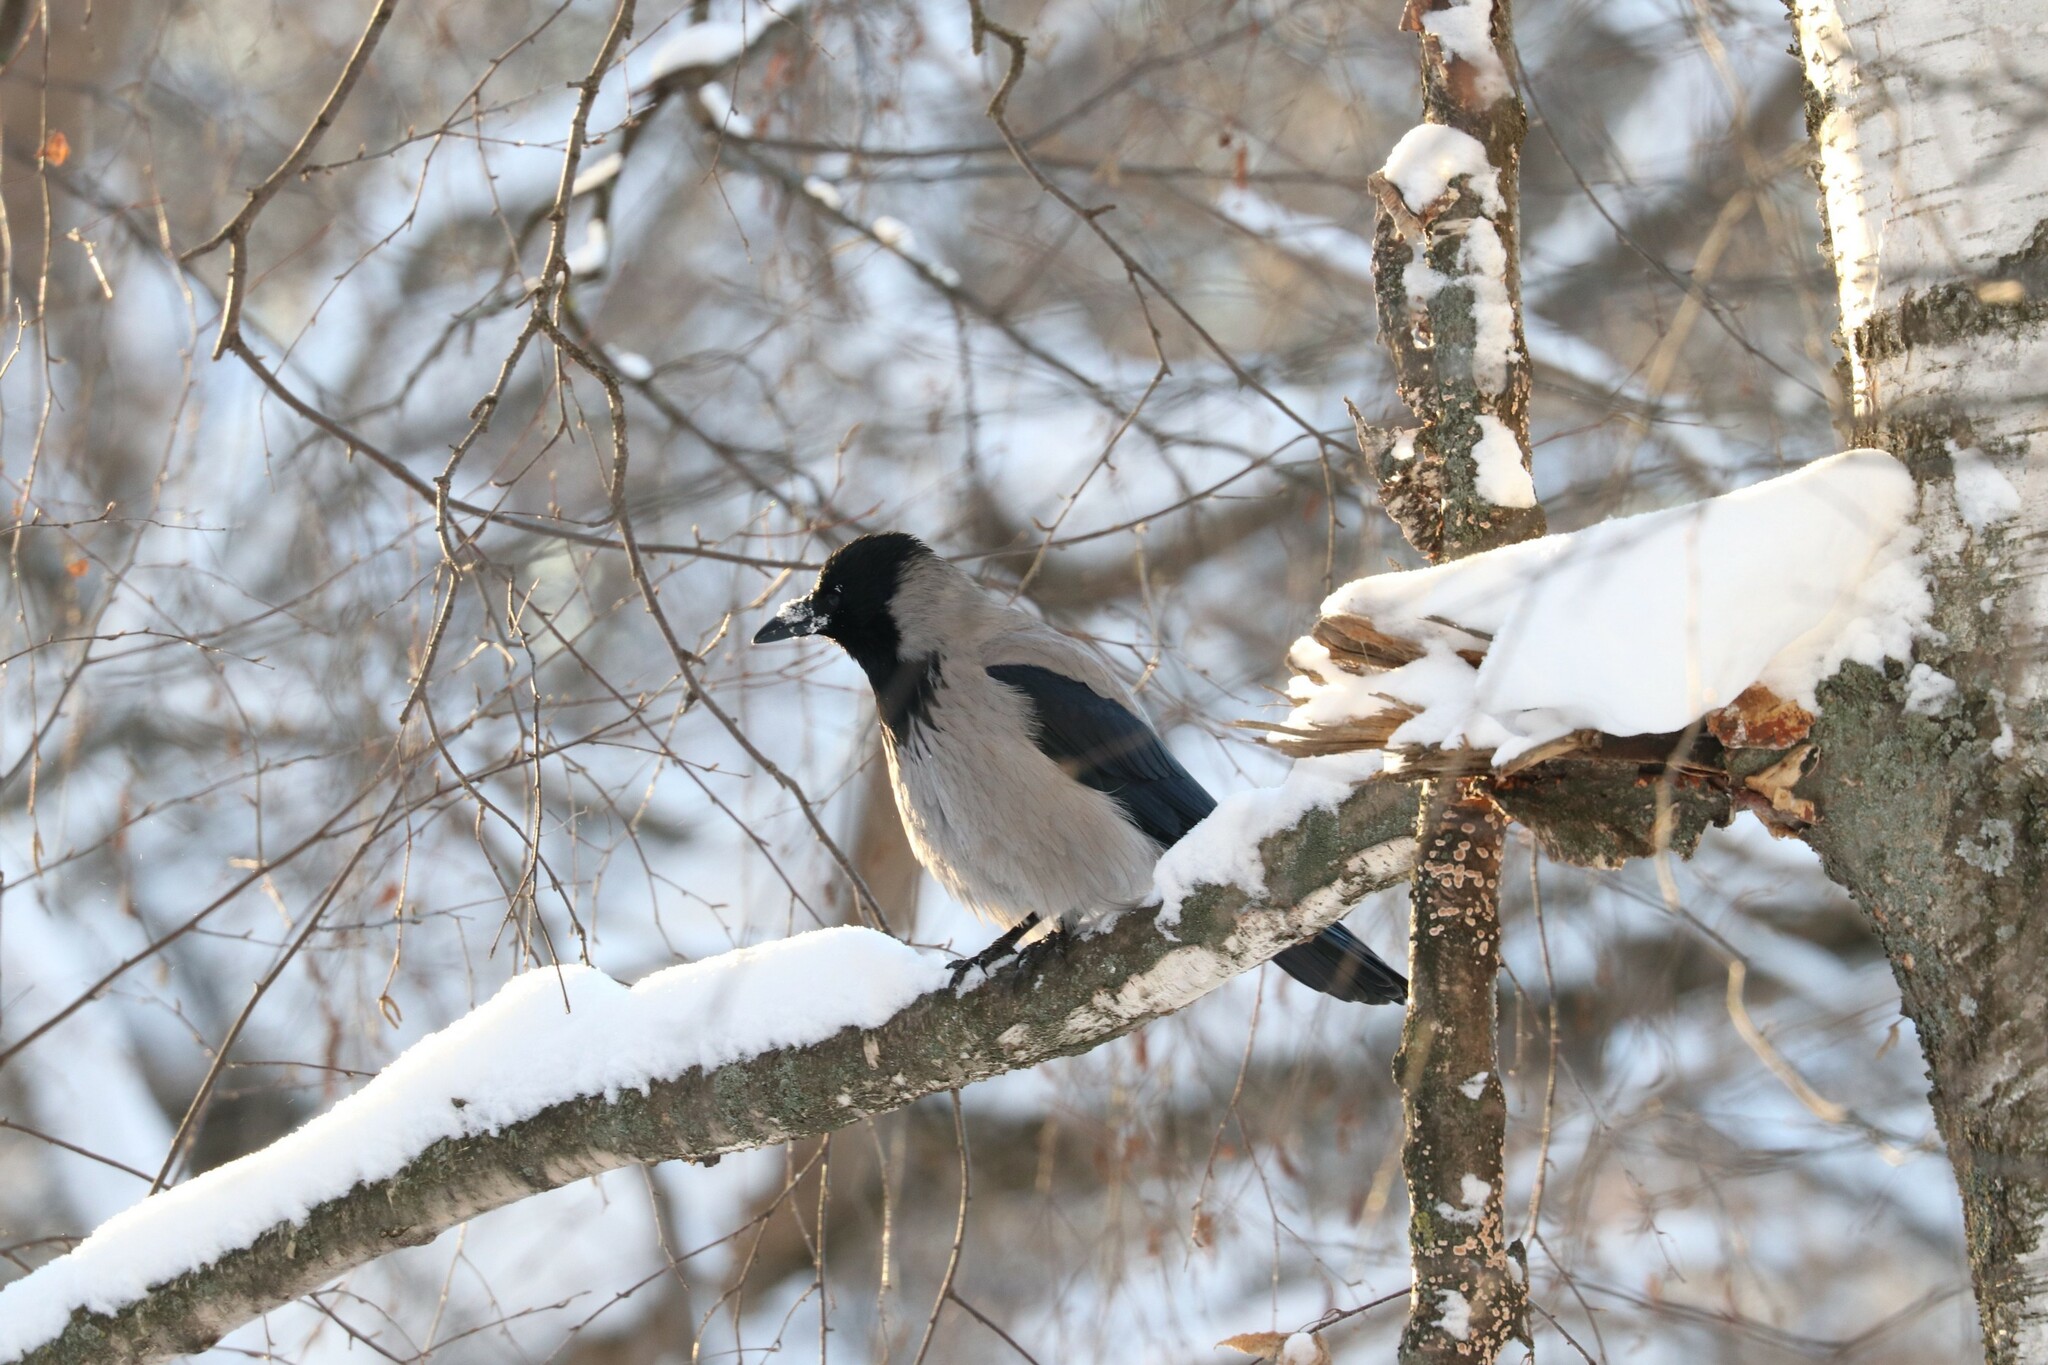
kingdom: Animalia
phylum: Chordata
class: Aves
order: Passeriformes
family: Corvidae
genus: Corvus
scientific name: Corvus cornix
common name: Hooded crow
